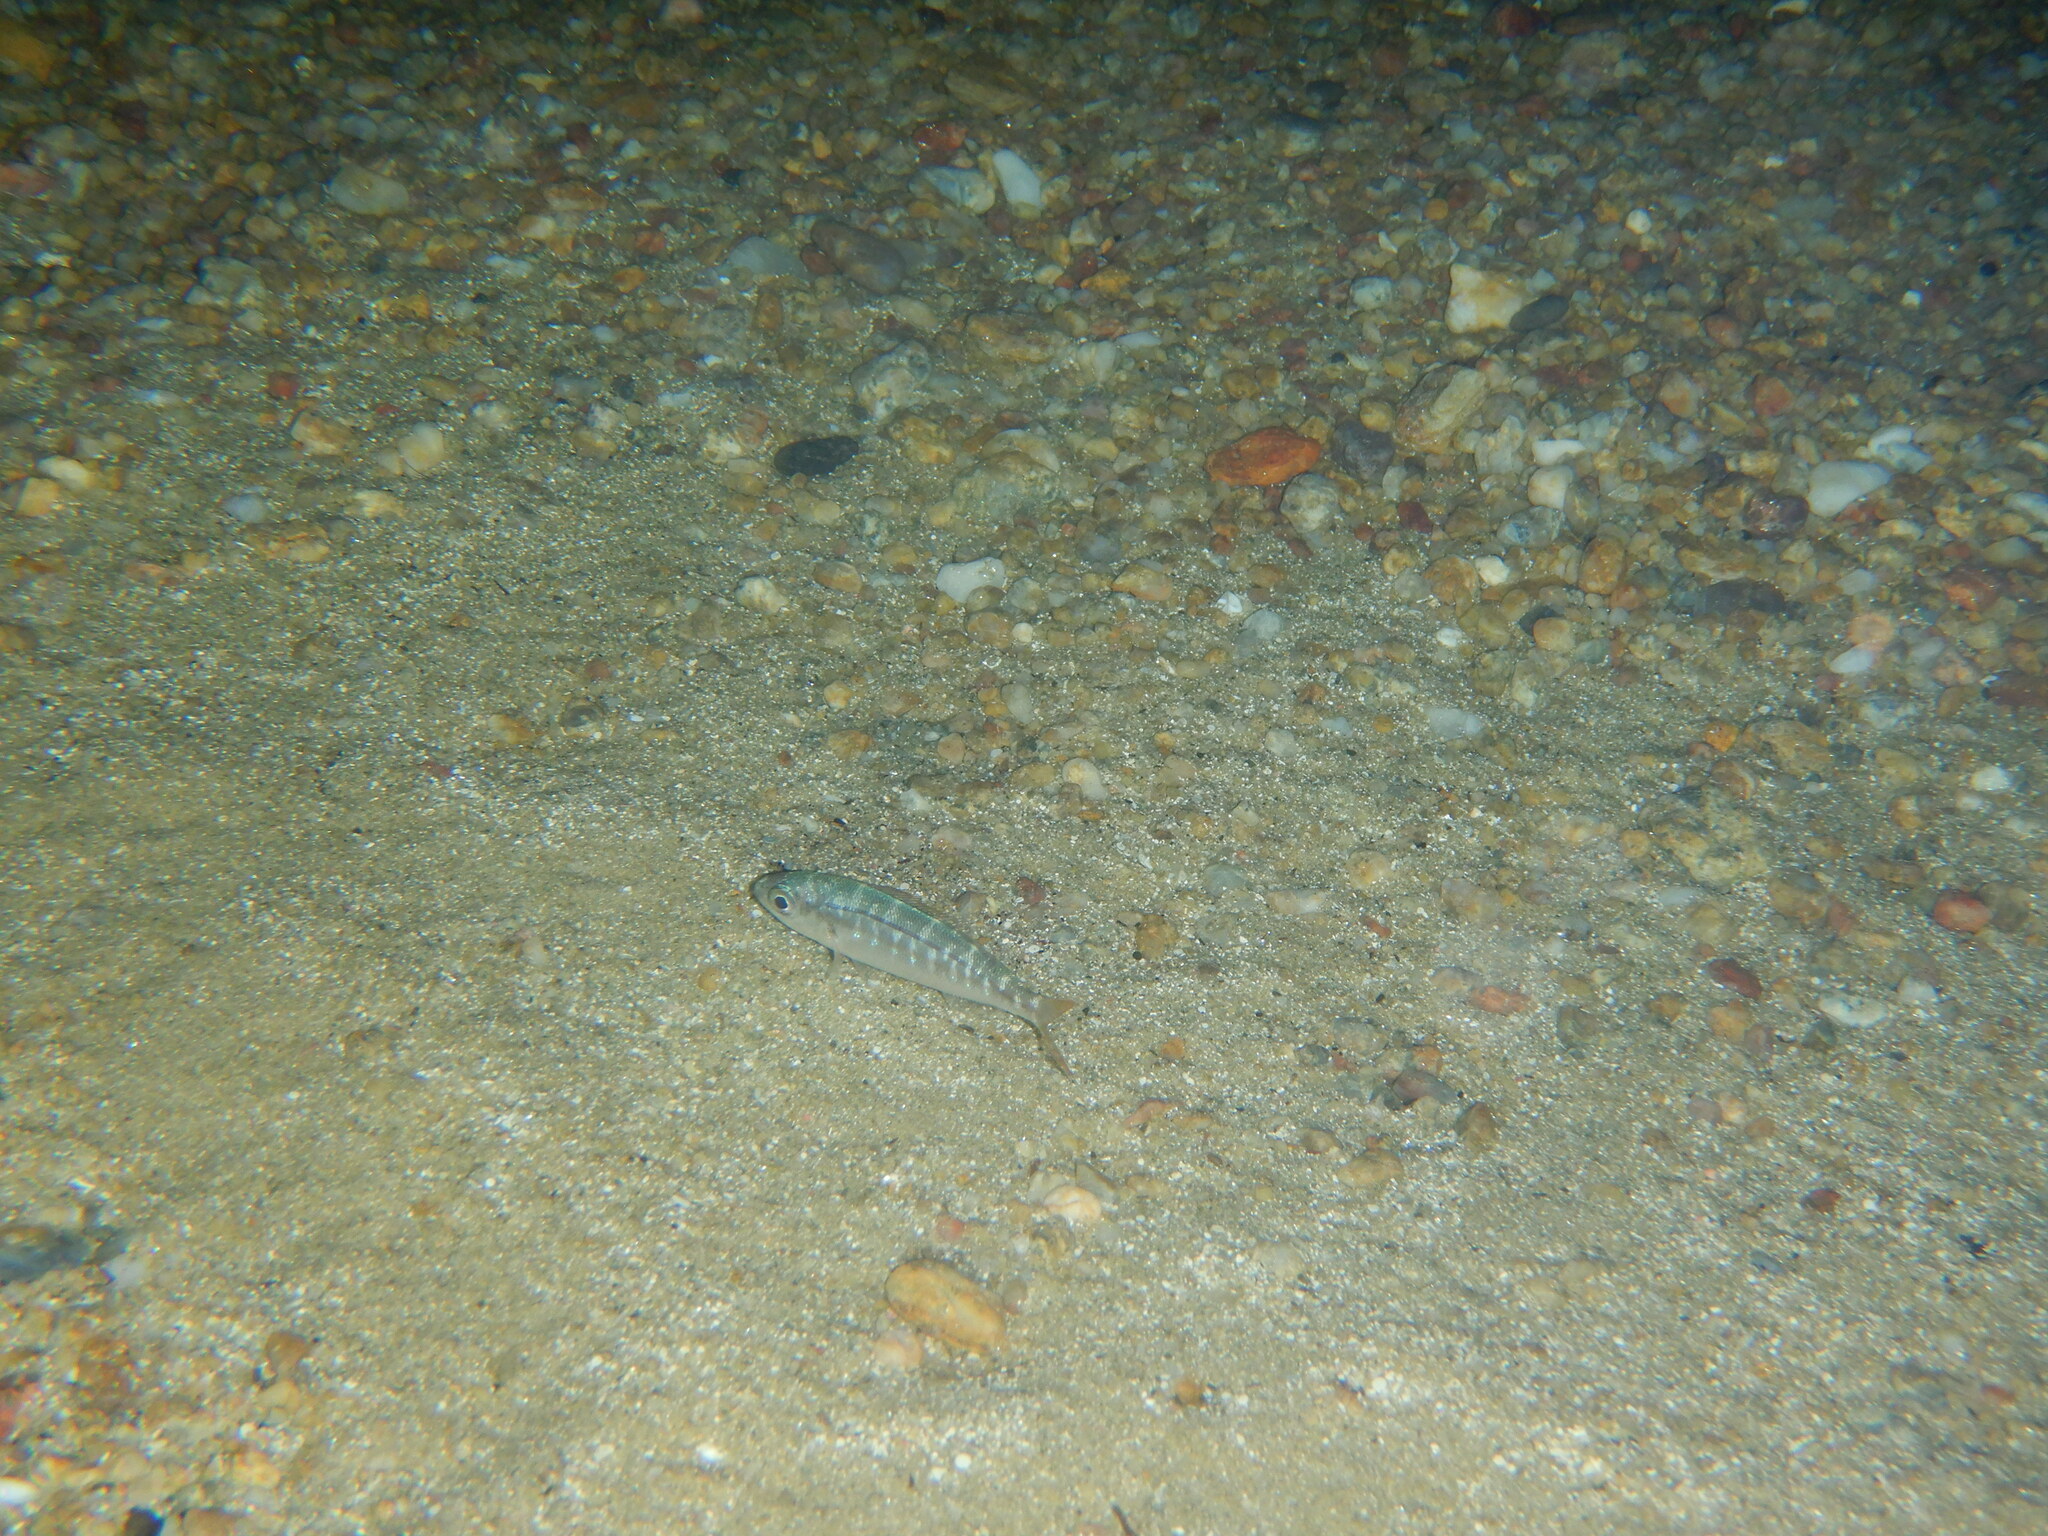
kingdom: Animalia
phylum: Chordata
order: Perciformes
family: Sparidae
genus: Boops
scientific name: Boops boops
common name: Bogue
